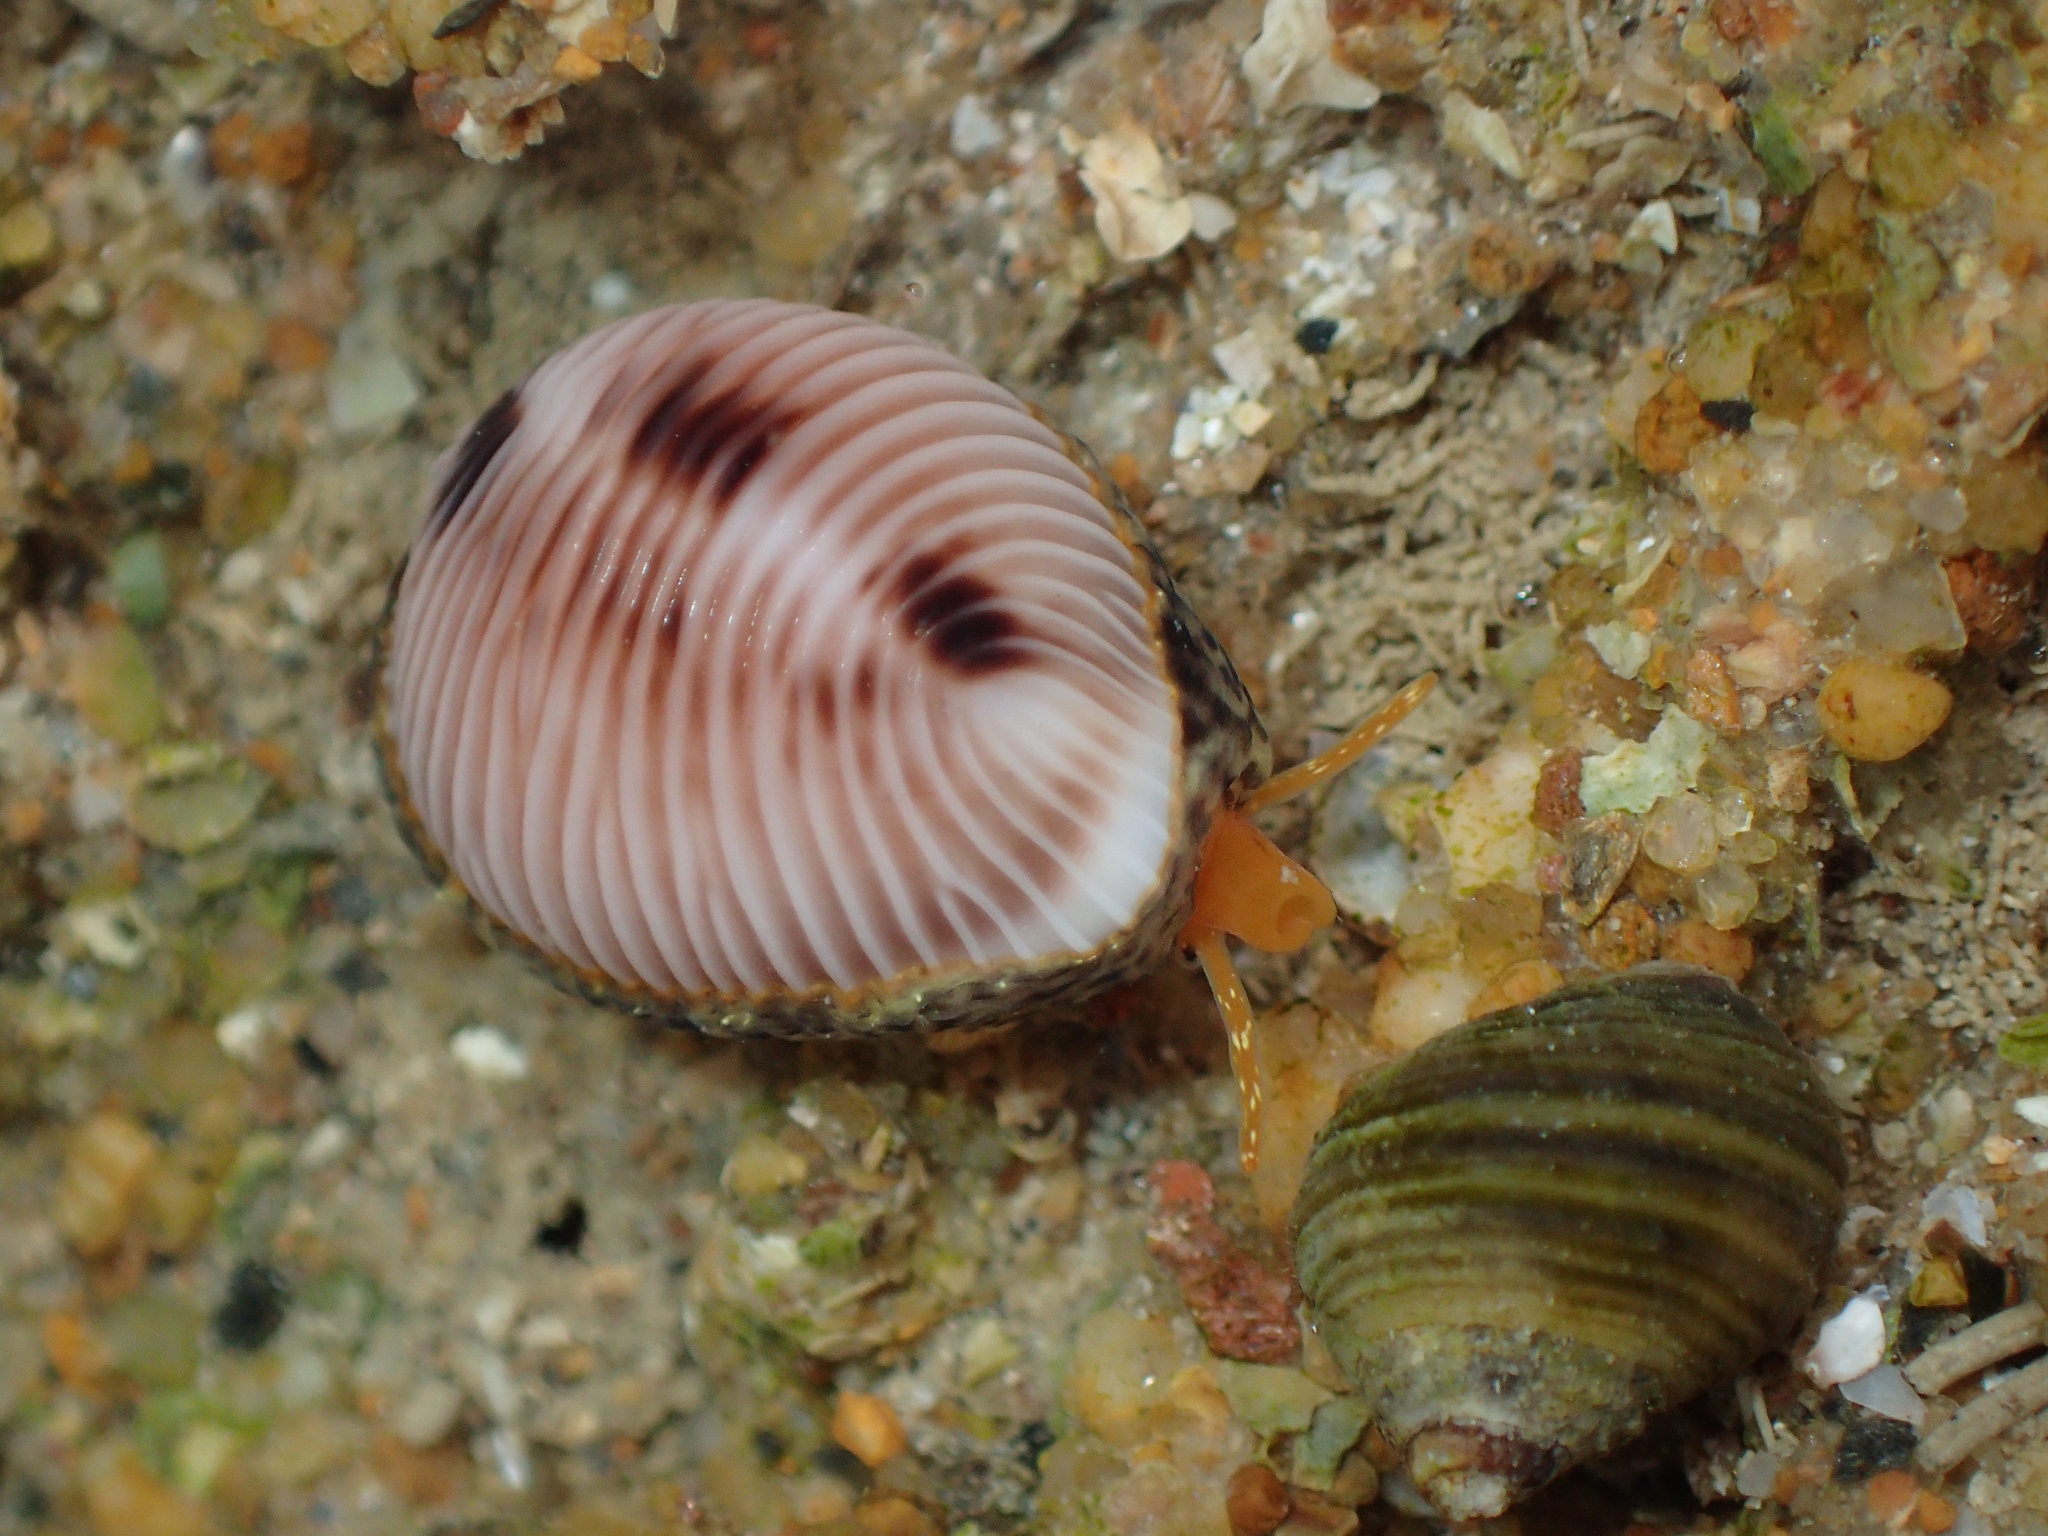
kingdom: Animalia
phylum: Mollusca
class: Gastropoda
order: Littorinimorpha
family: Triviidae
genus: Trivia
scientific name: Trivia monacha
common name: Spotted cowrie
